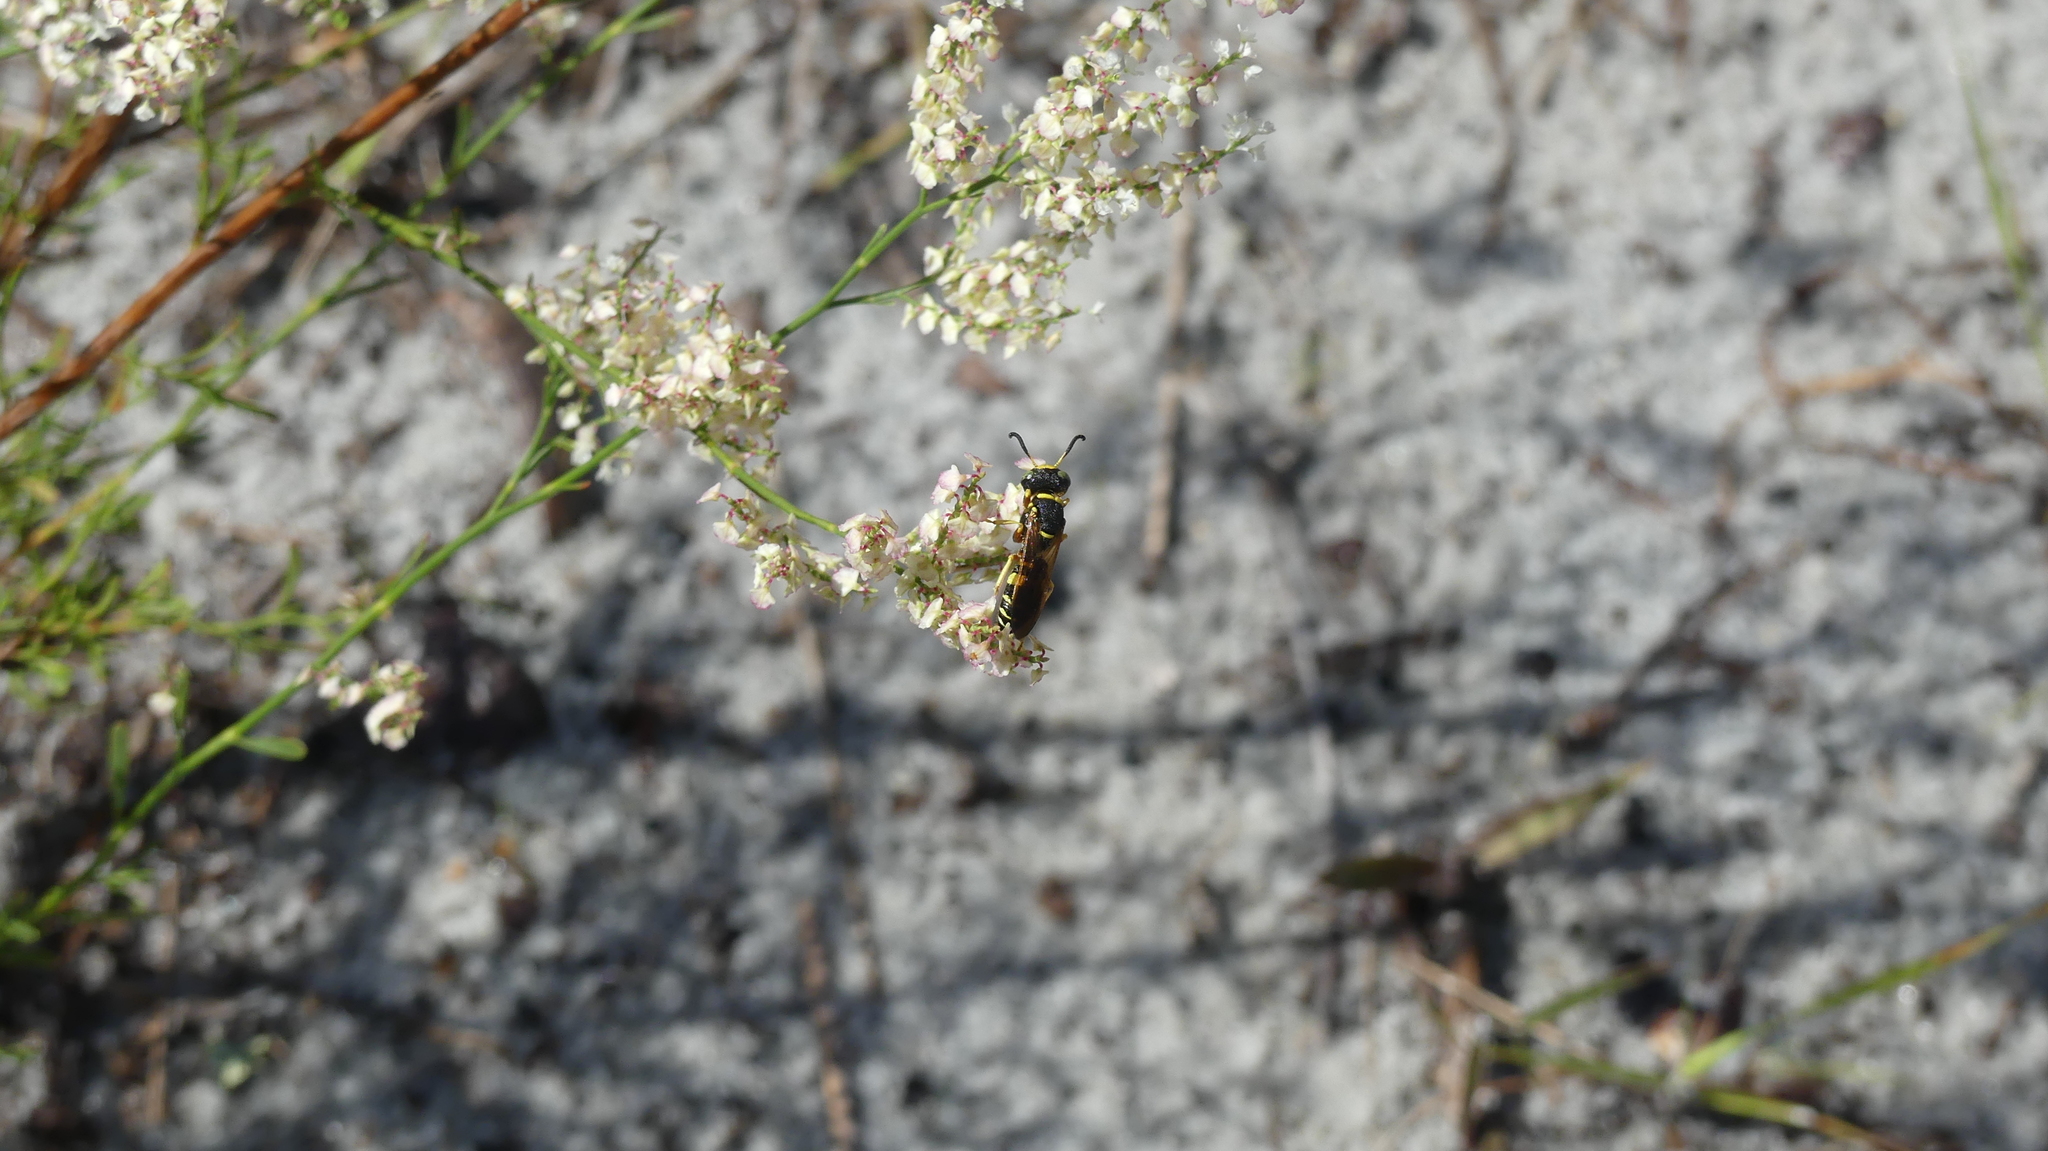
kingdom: Animalia
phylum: Arthropoda
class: Insecta
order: Hymenoptera
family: Crabronidae
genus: Philanthus
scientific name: Philanthus ventilabris
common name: Bee-killer wasp
